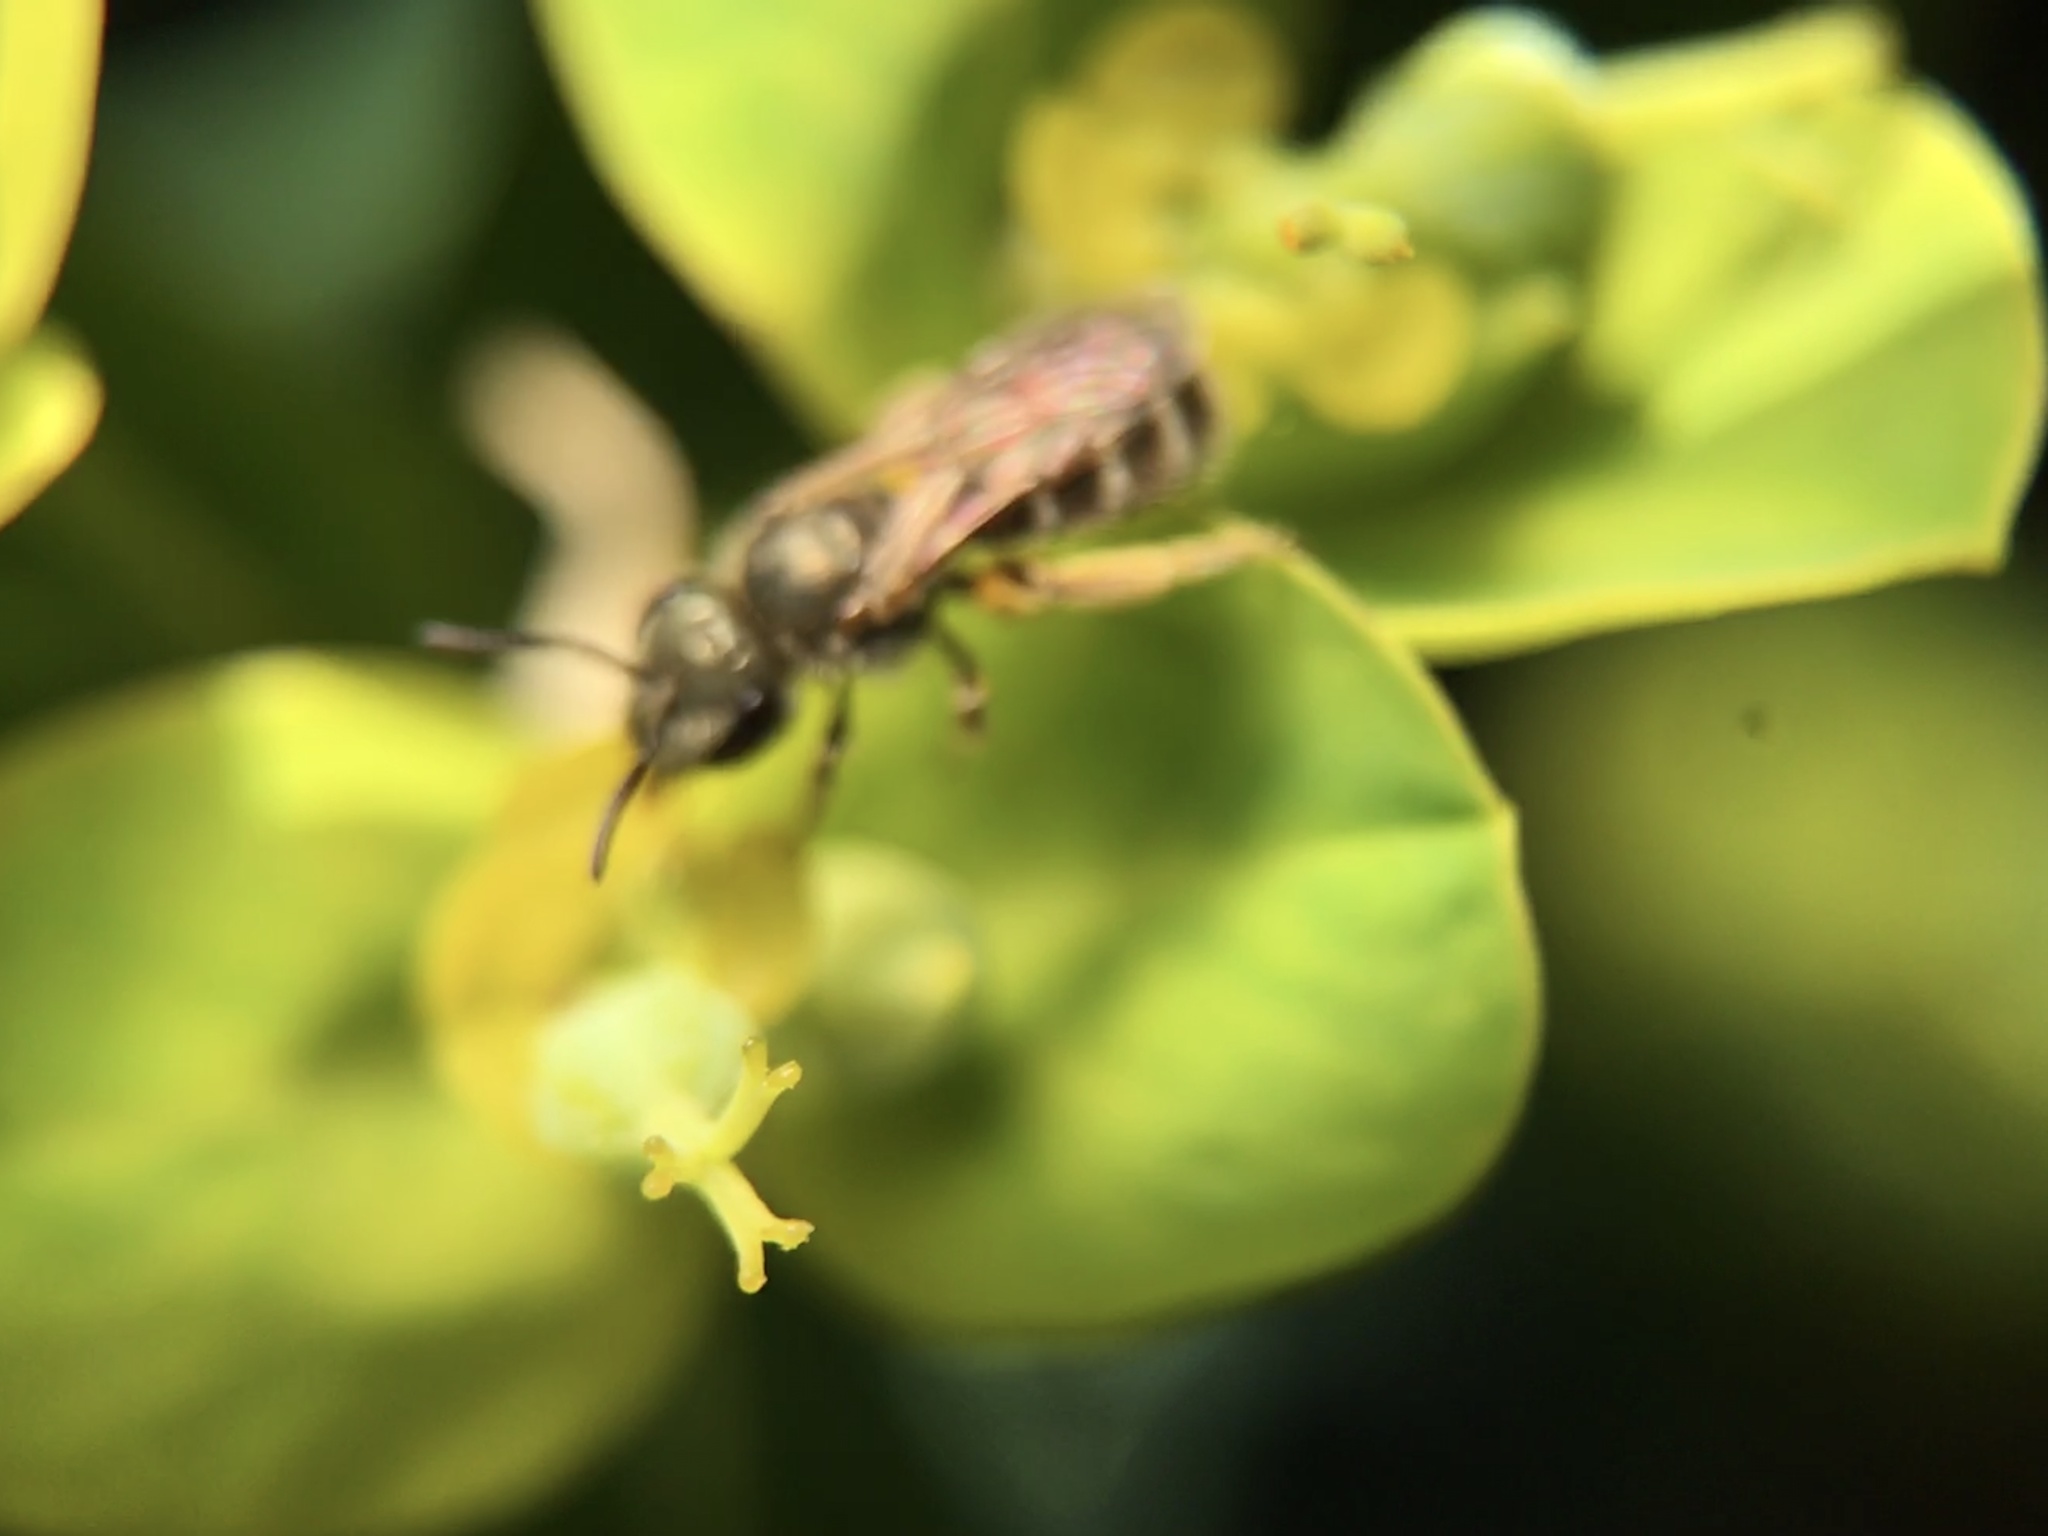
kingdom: Animalia
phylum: Arthropoda
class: Insecta
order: Hymenoptera
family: Halictidae
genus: Halictus
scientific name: Halictus tripartitus
